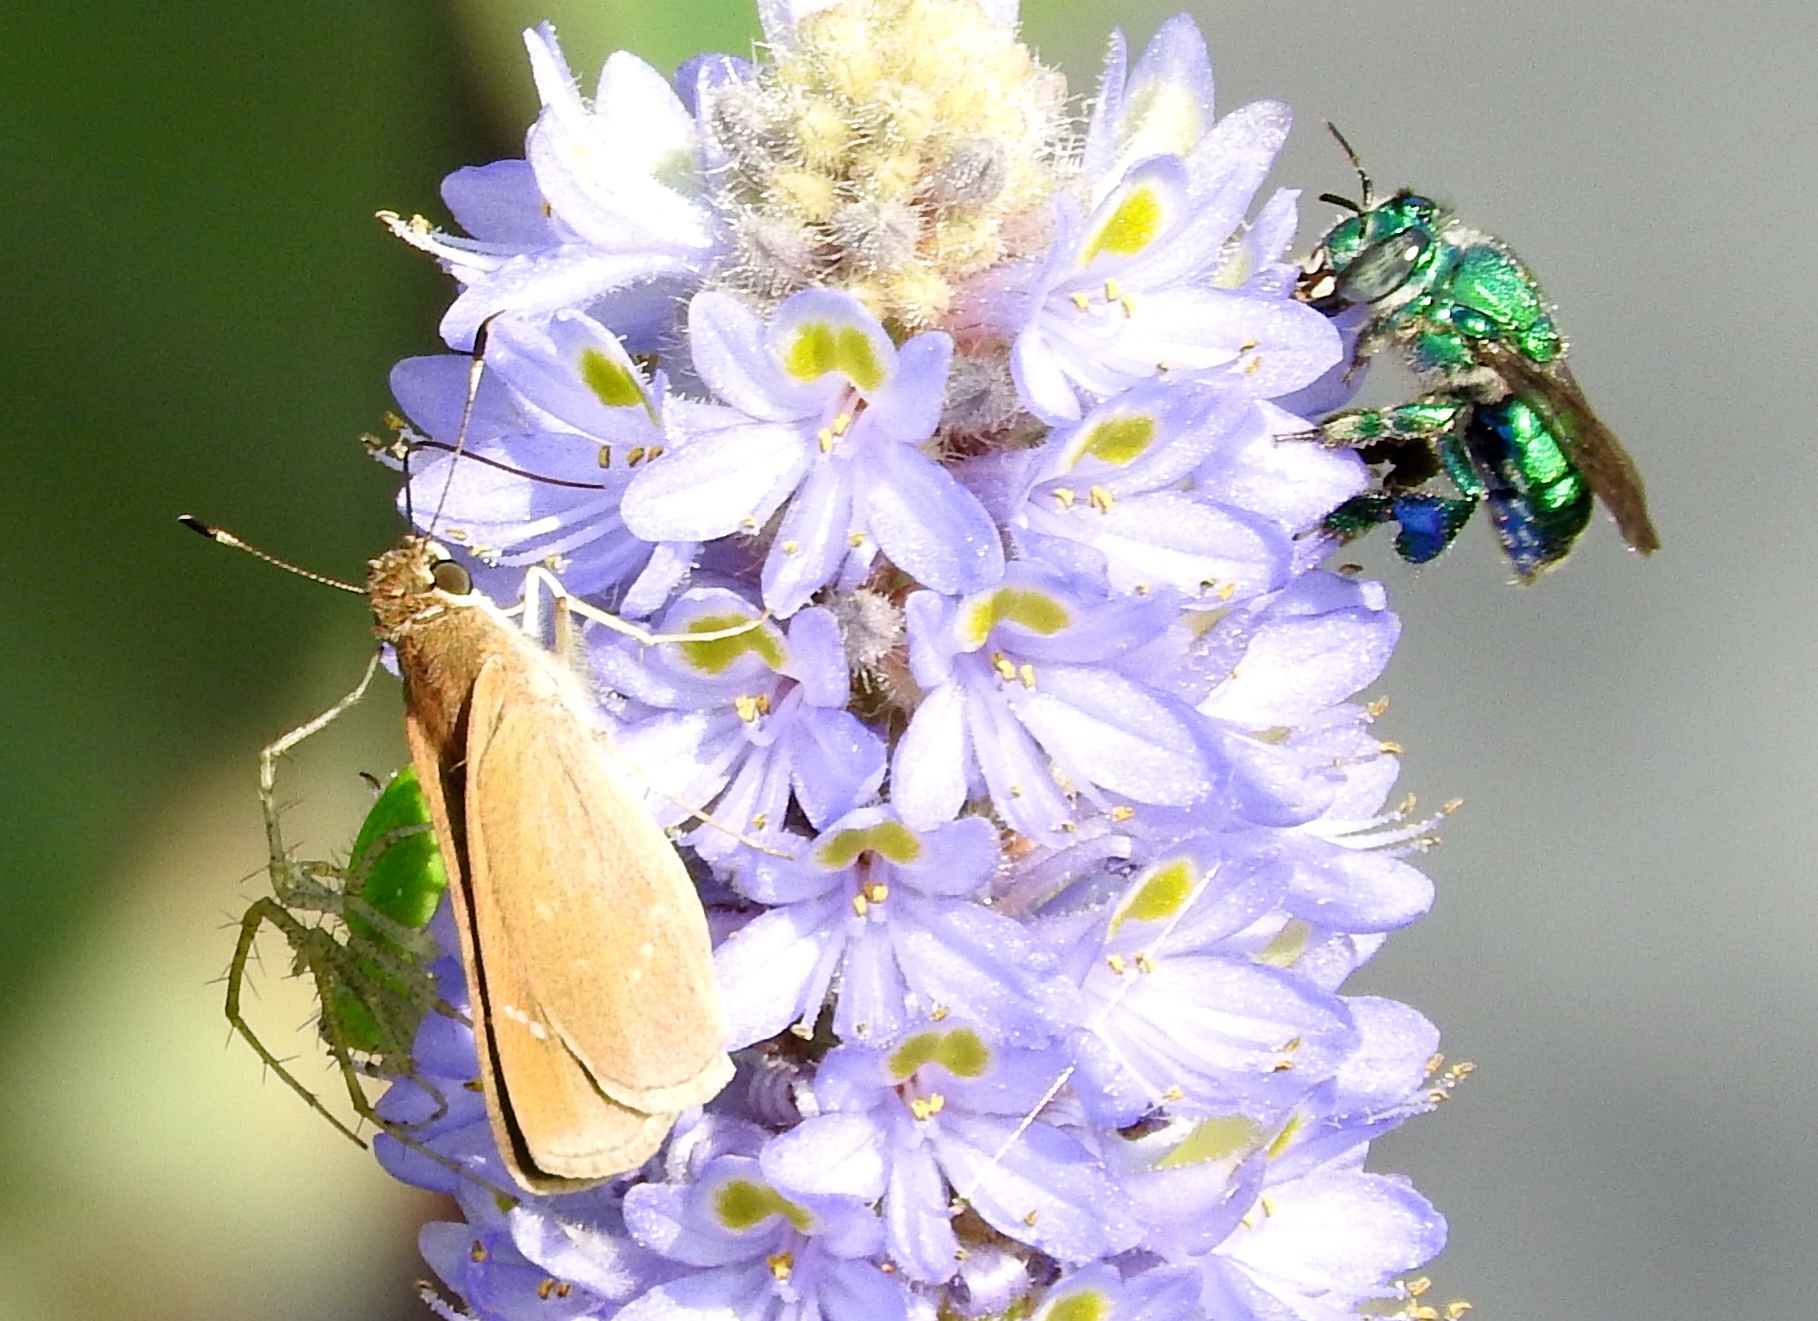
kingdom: Animalia
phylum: Arthropoda
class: Arachnida
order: Araneae
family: Oxyopidae
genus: Peucetia
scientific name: Peucetia longipalpis
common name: Lynx spiders
